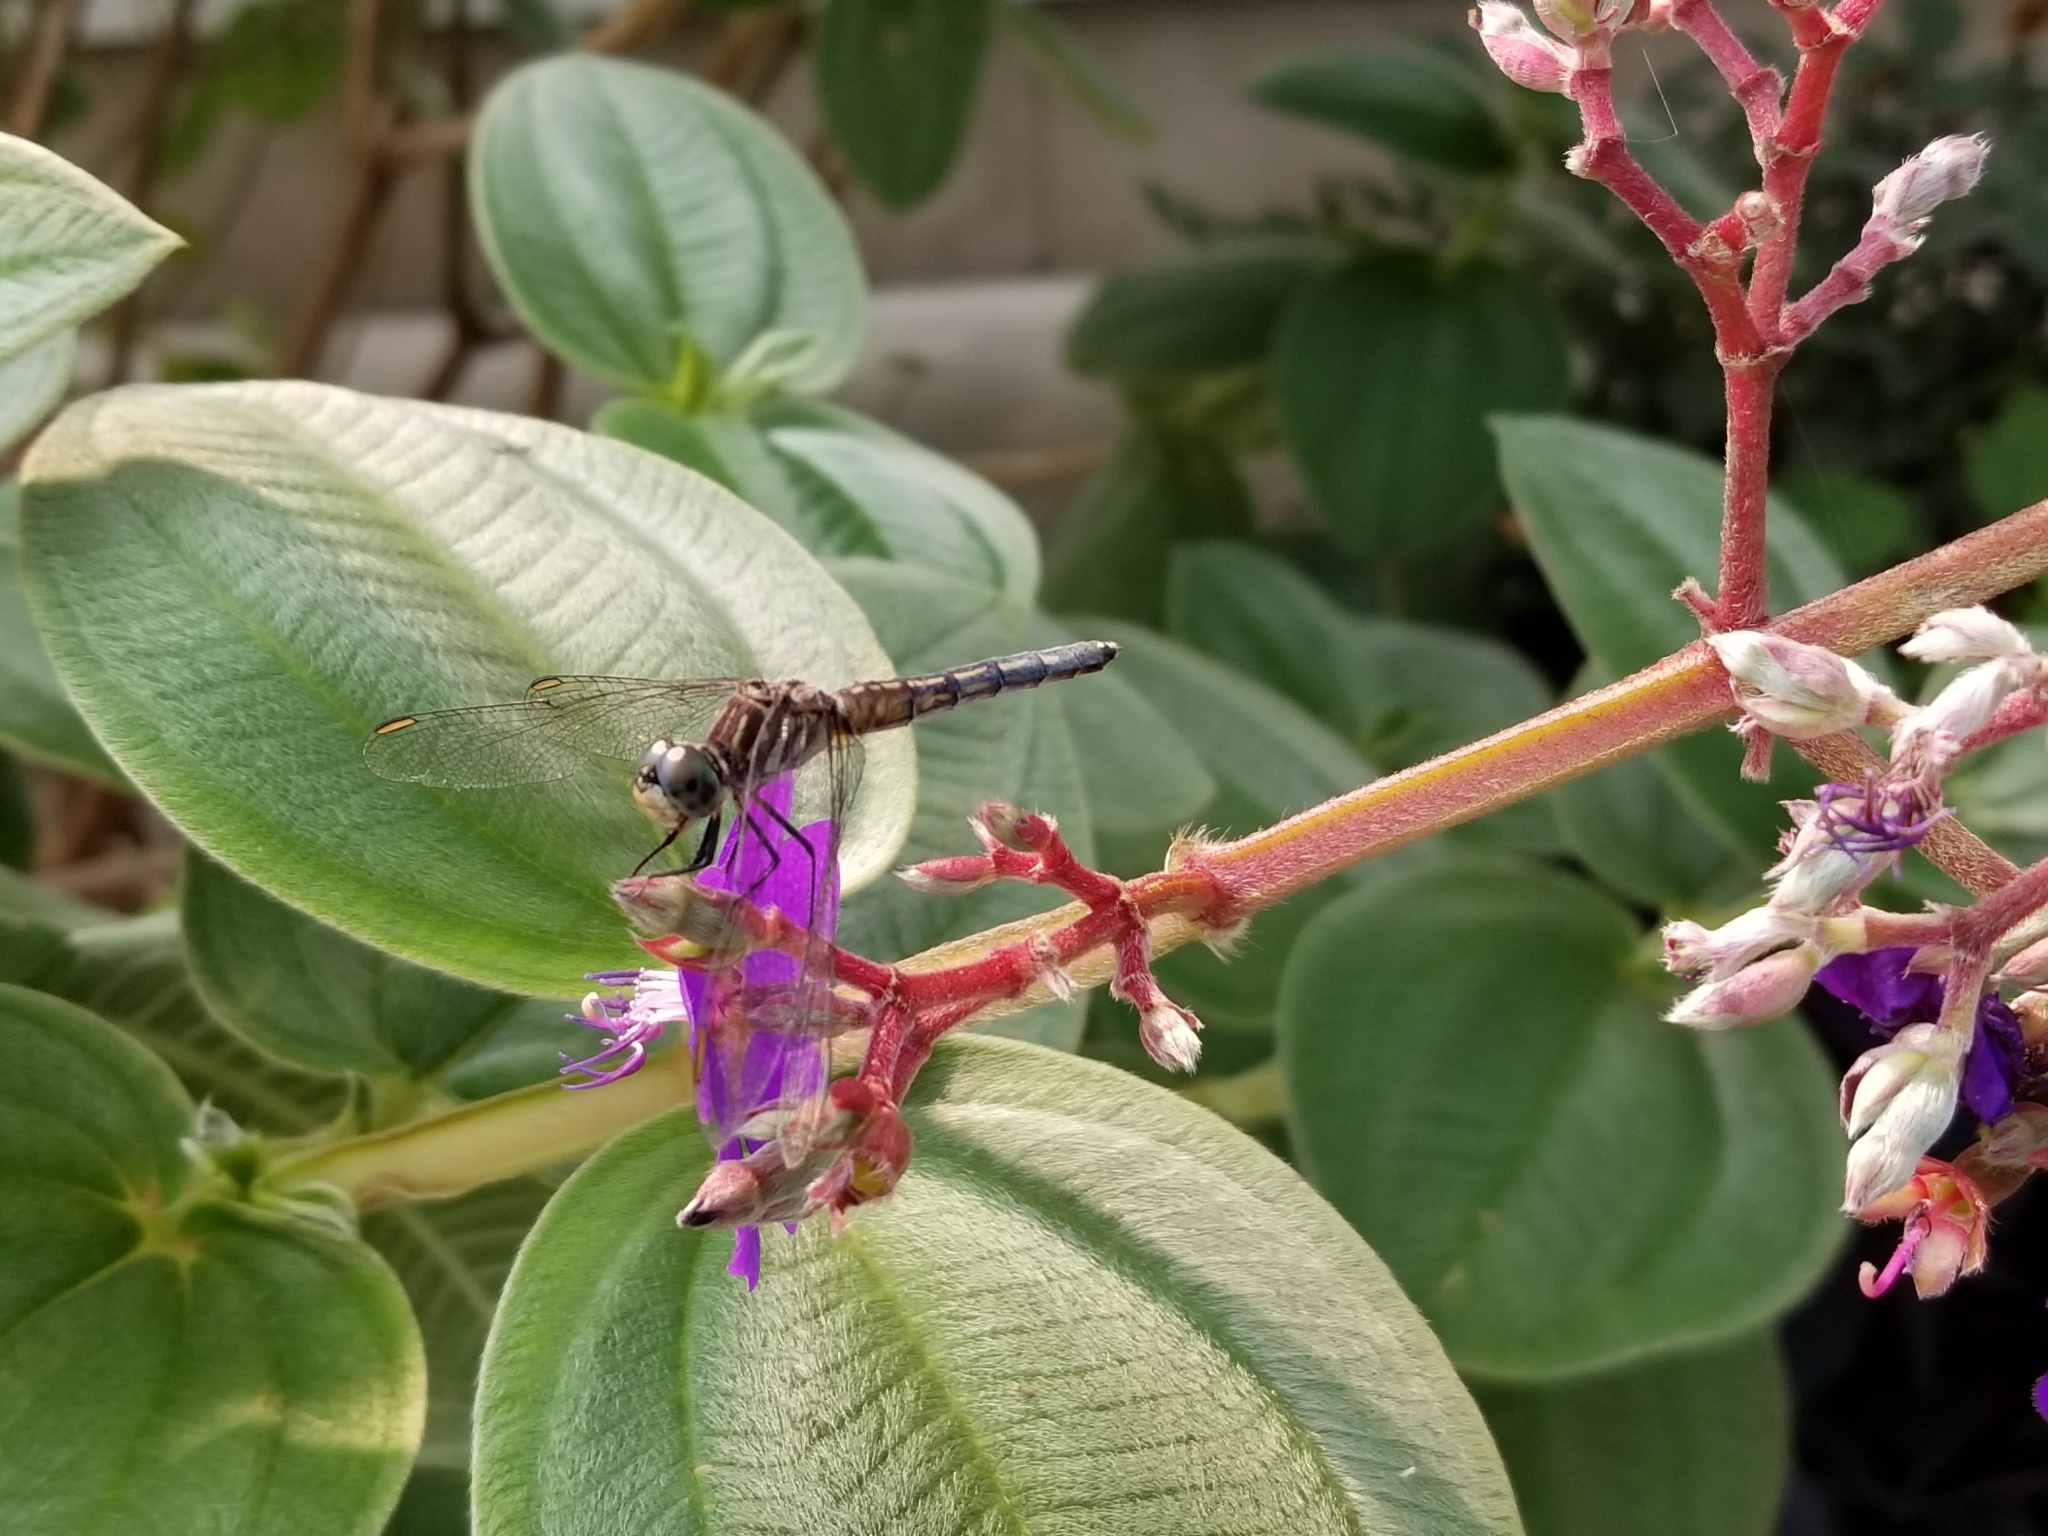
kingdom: Animalia
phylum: Arthropoda
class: Insecta
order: Odonata
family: Libellulidae
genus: Pachydiplax
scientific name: Pachydiplax longipennis
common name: Blue dasher
